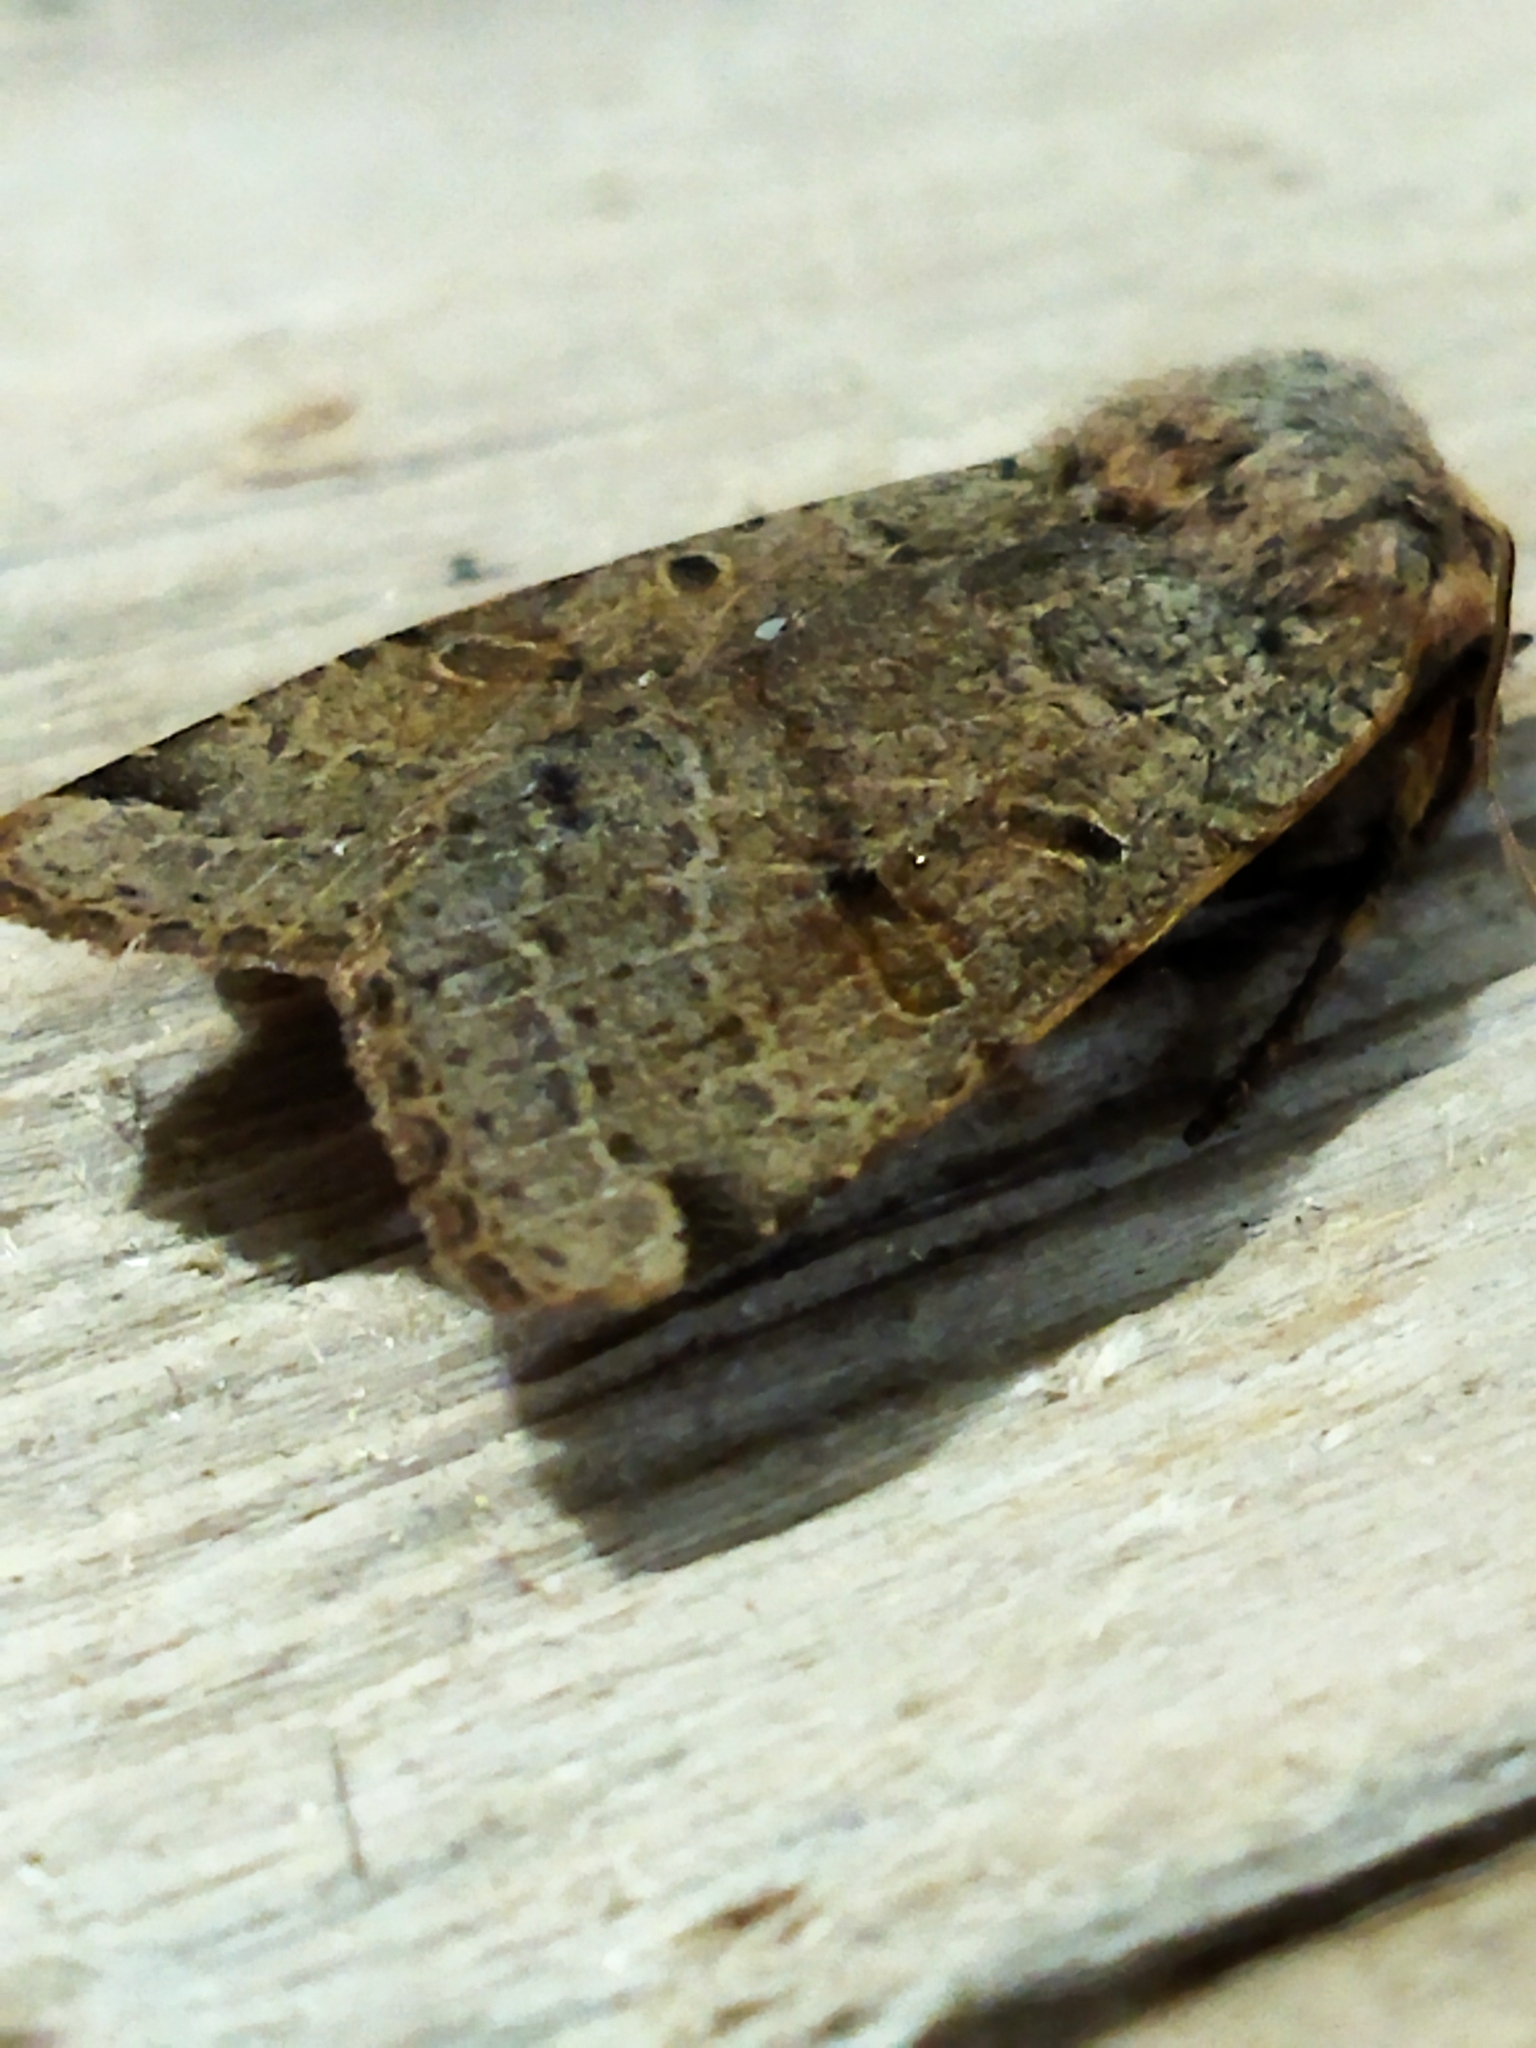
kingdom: Animalia
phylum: Arthropoda
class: Insecta
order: Lepidoptera
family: Noctuidae
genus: Agrochola
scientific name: Agrochola lychnidis
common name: Beaded chestnut
